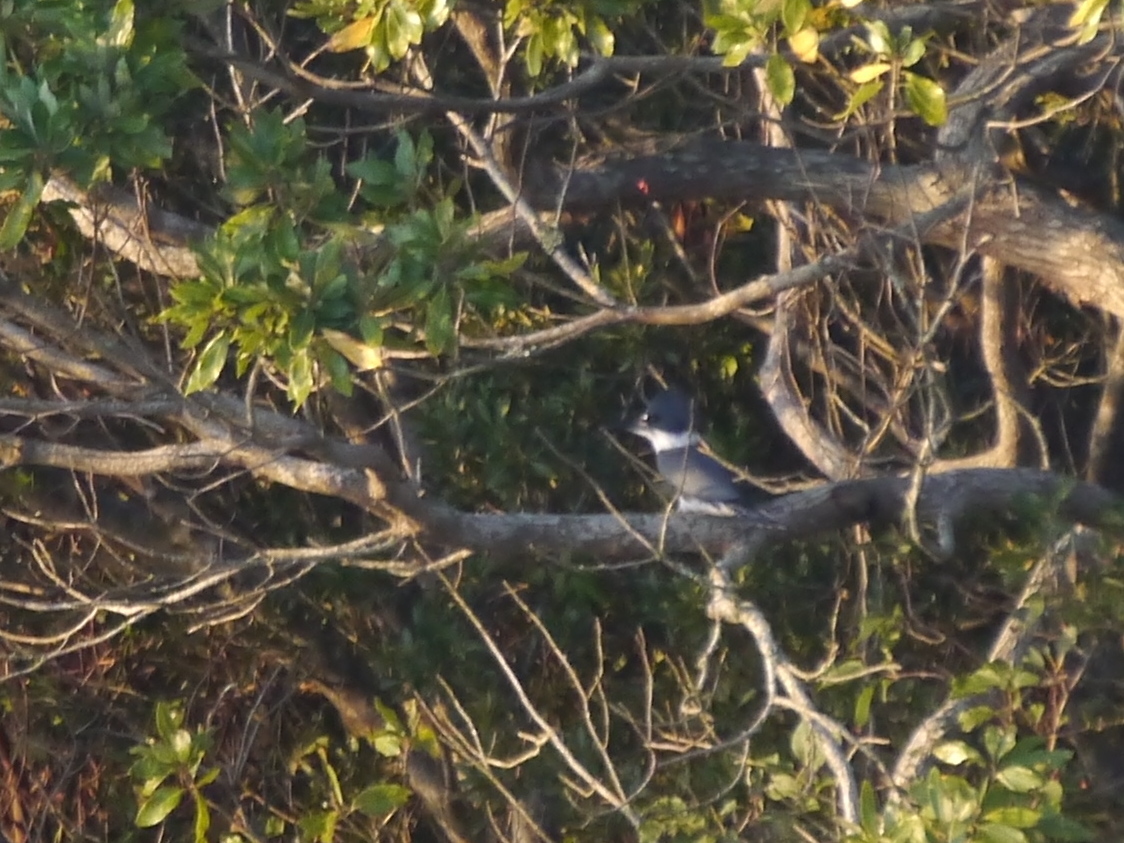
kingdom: Animalia
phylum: Chordata
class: Aves
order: Coraciiformes
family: Alcedinidae
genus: Megaceryle
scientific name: Megaceryle alcyon
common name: Belted kingfisher
